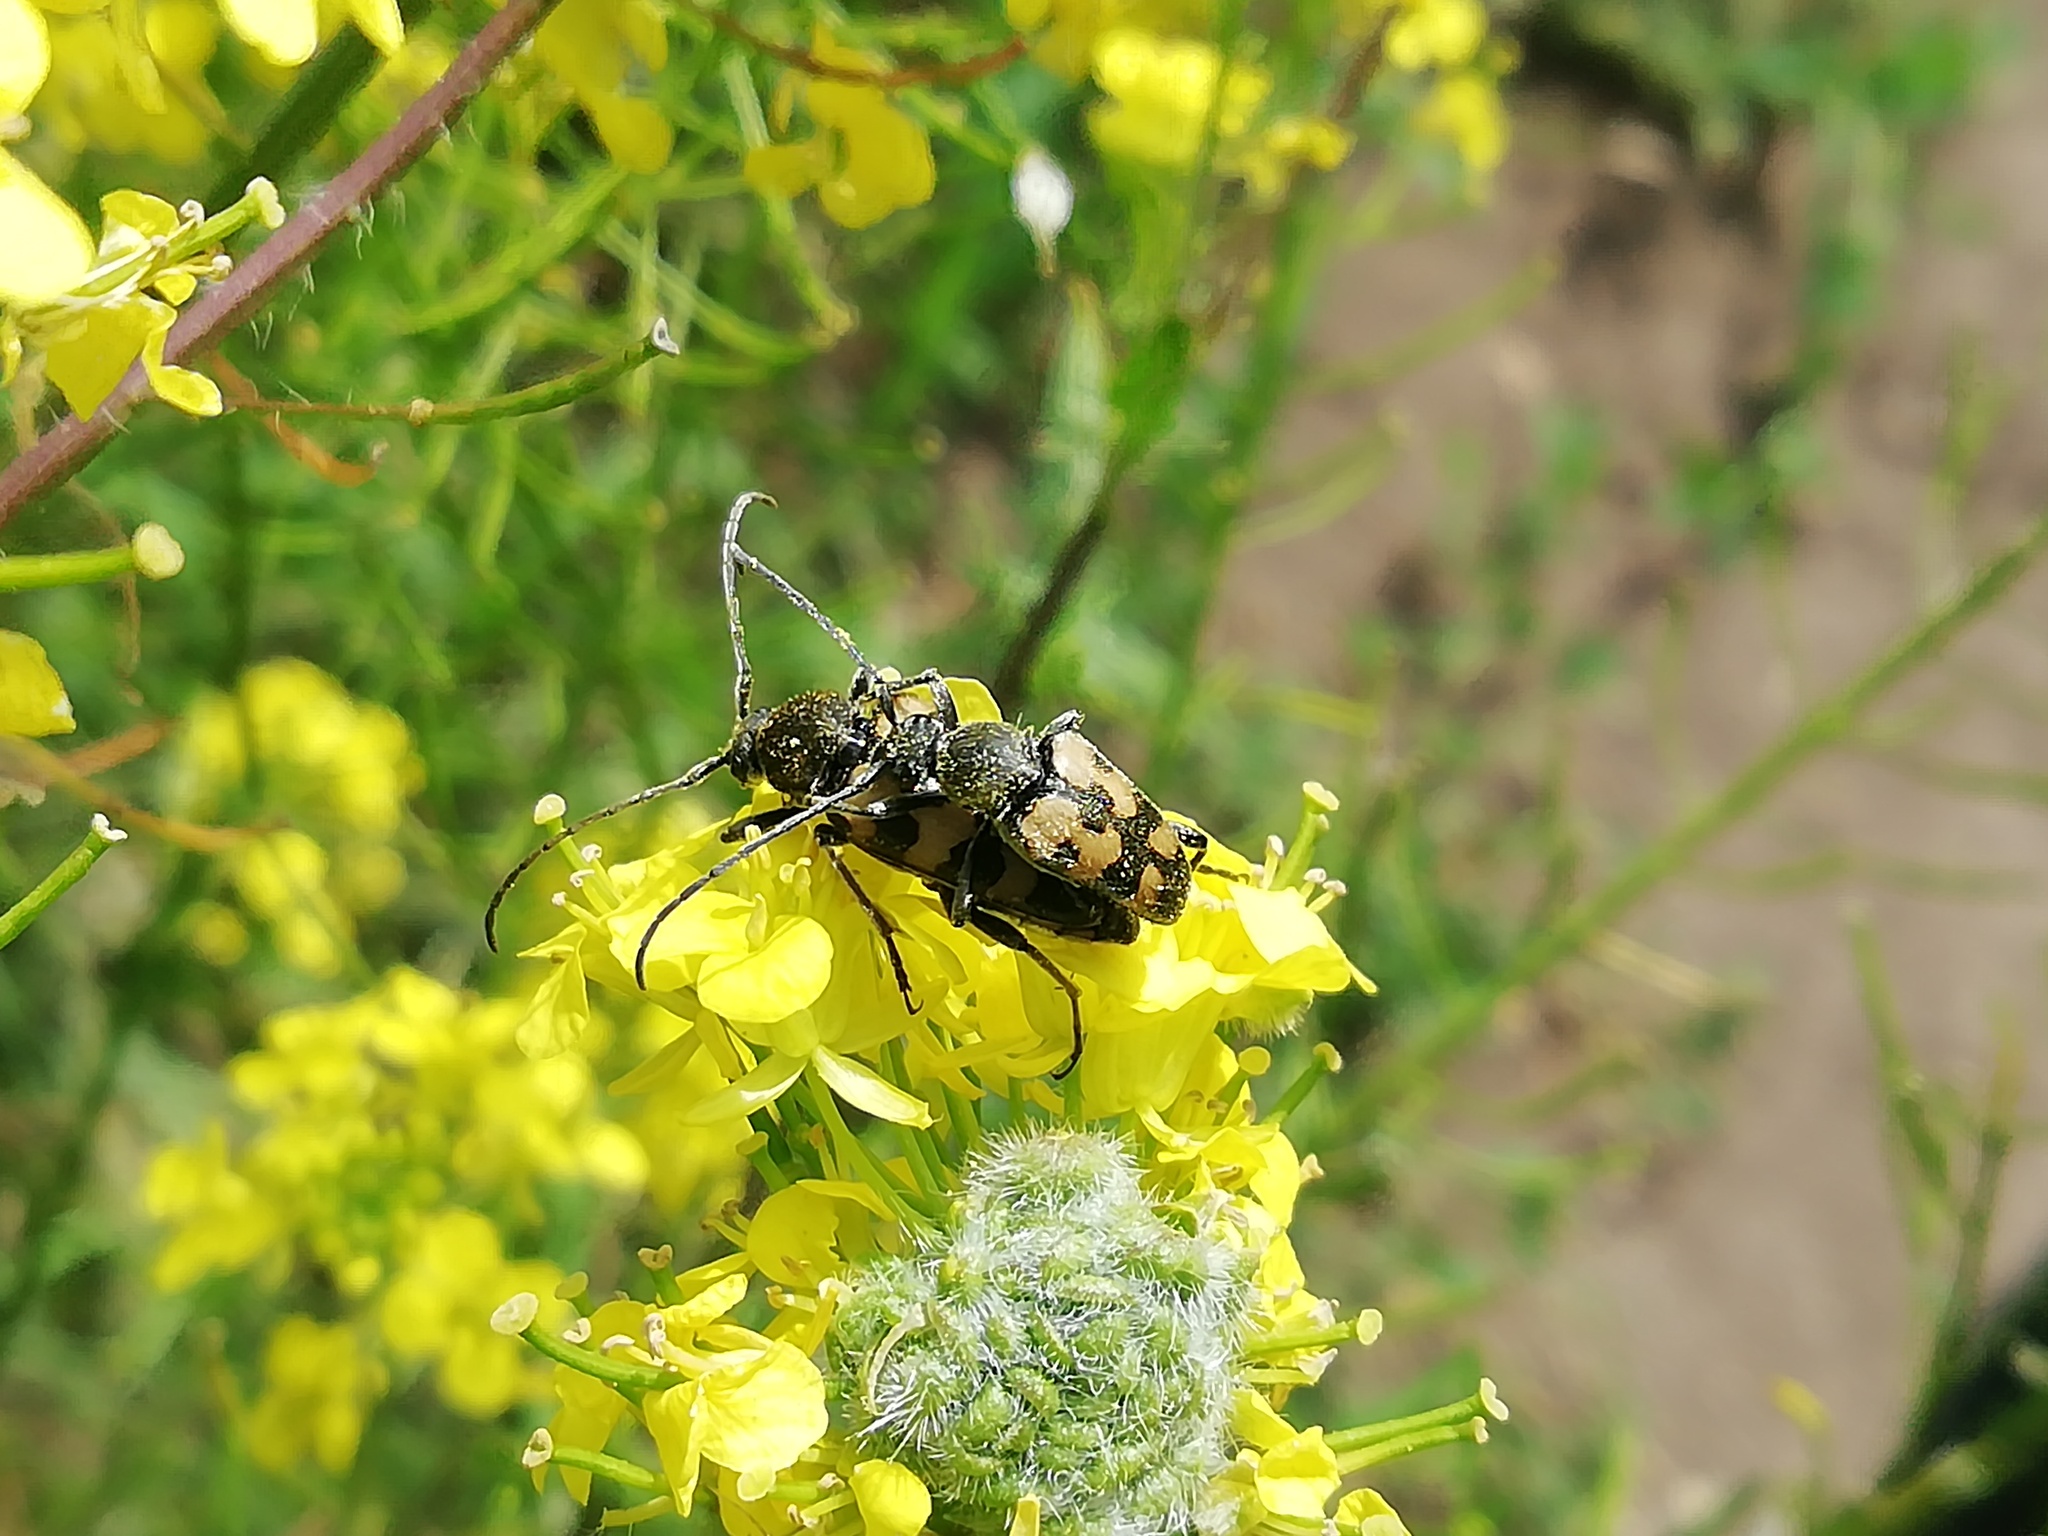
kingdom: Animalia
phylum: Arthropoda
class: Insecta
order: Coleoptera
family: Cerambycidae
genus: Pachytodes
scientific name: Pachytodes
